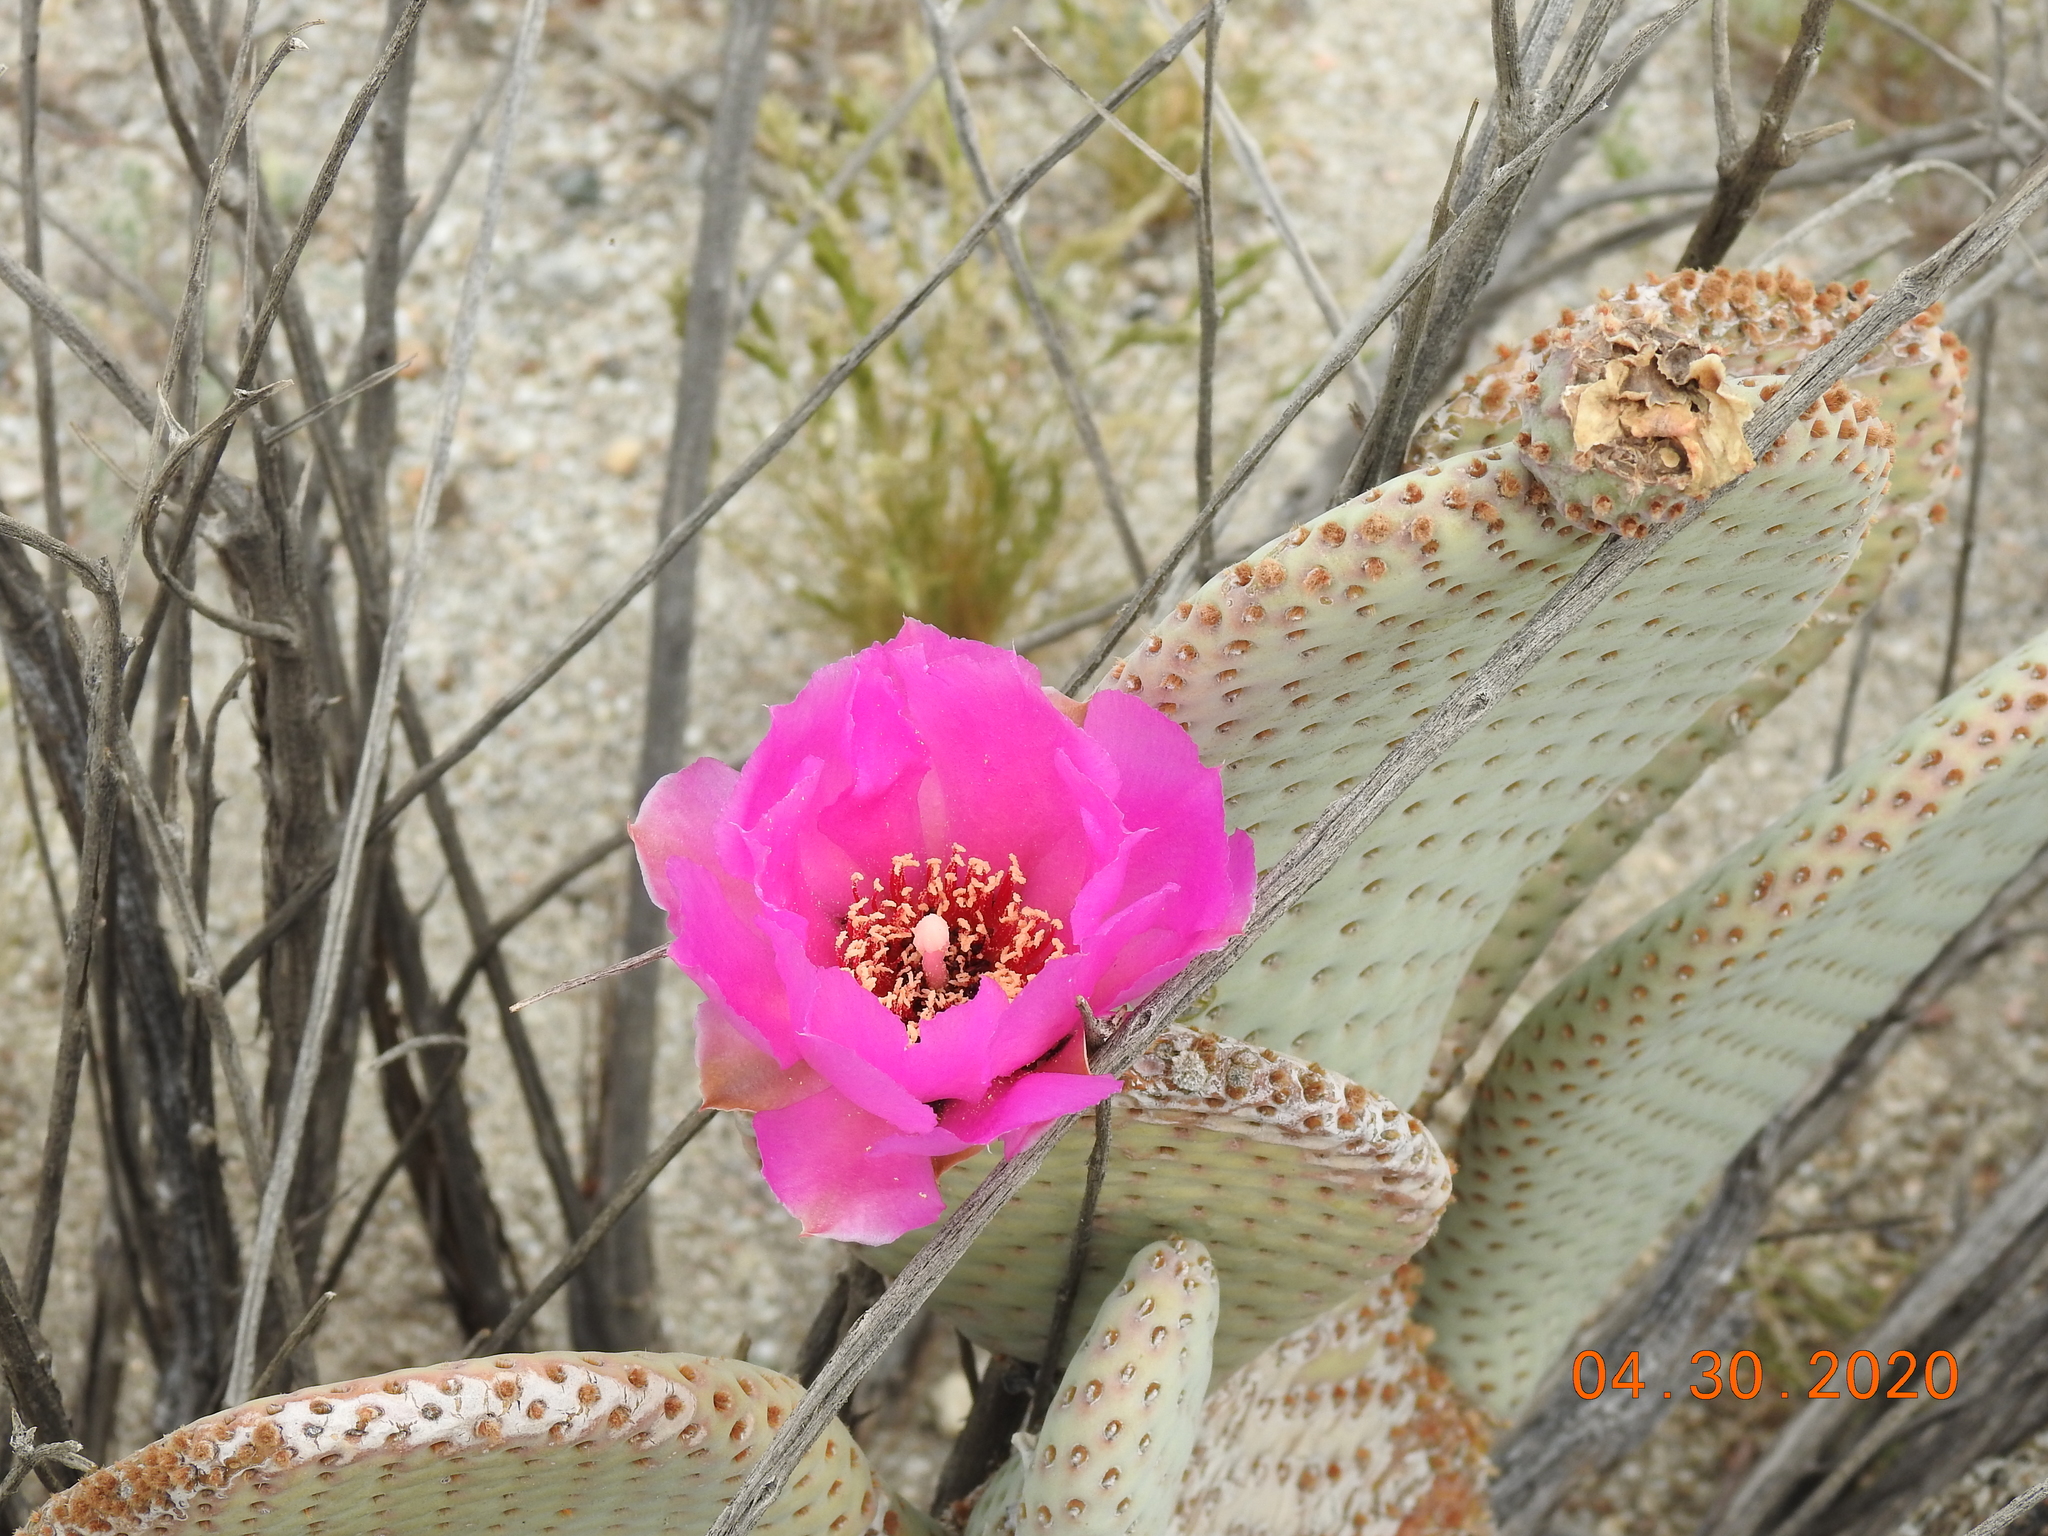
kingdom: Plantae
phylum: Tracheophyta
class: Magnoliopsida
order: Caryophyllales
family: Cactaceae
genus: Opuntia
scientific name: Opuntia basilaris
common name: Beavertail prickly-pear
